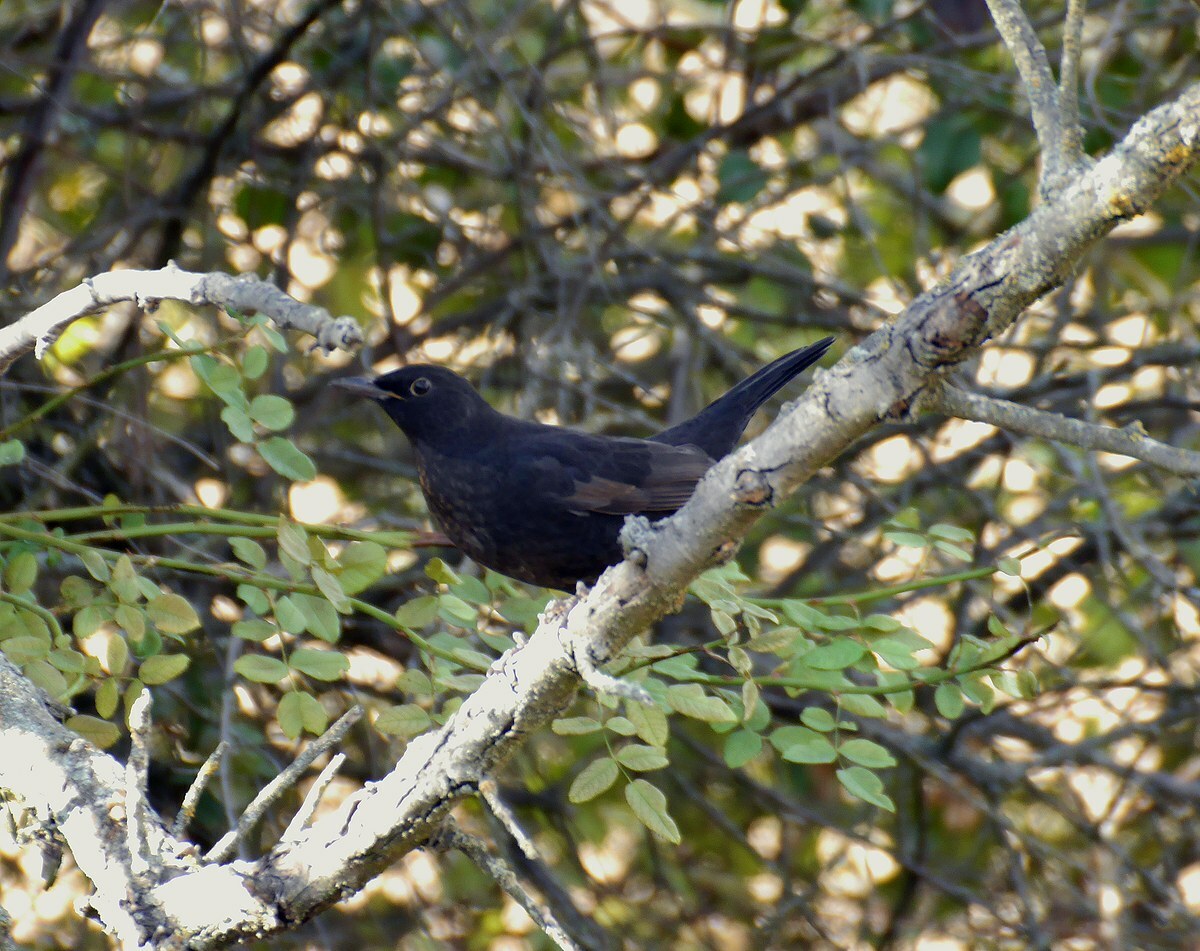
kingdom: Animalia
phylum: Chordata
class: Aves
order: Passeriformes
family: Turdidae
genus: Turdus
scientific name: Turdus merula
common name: Common blackbird
